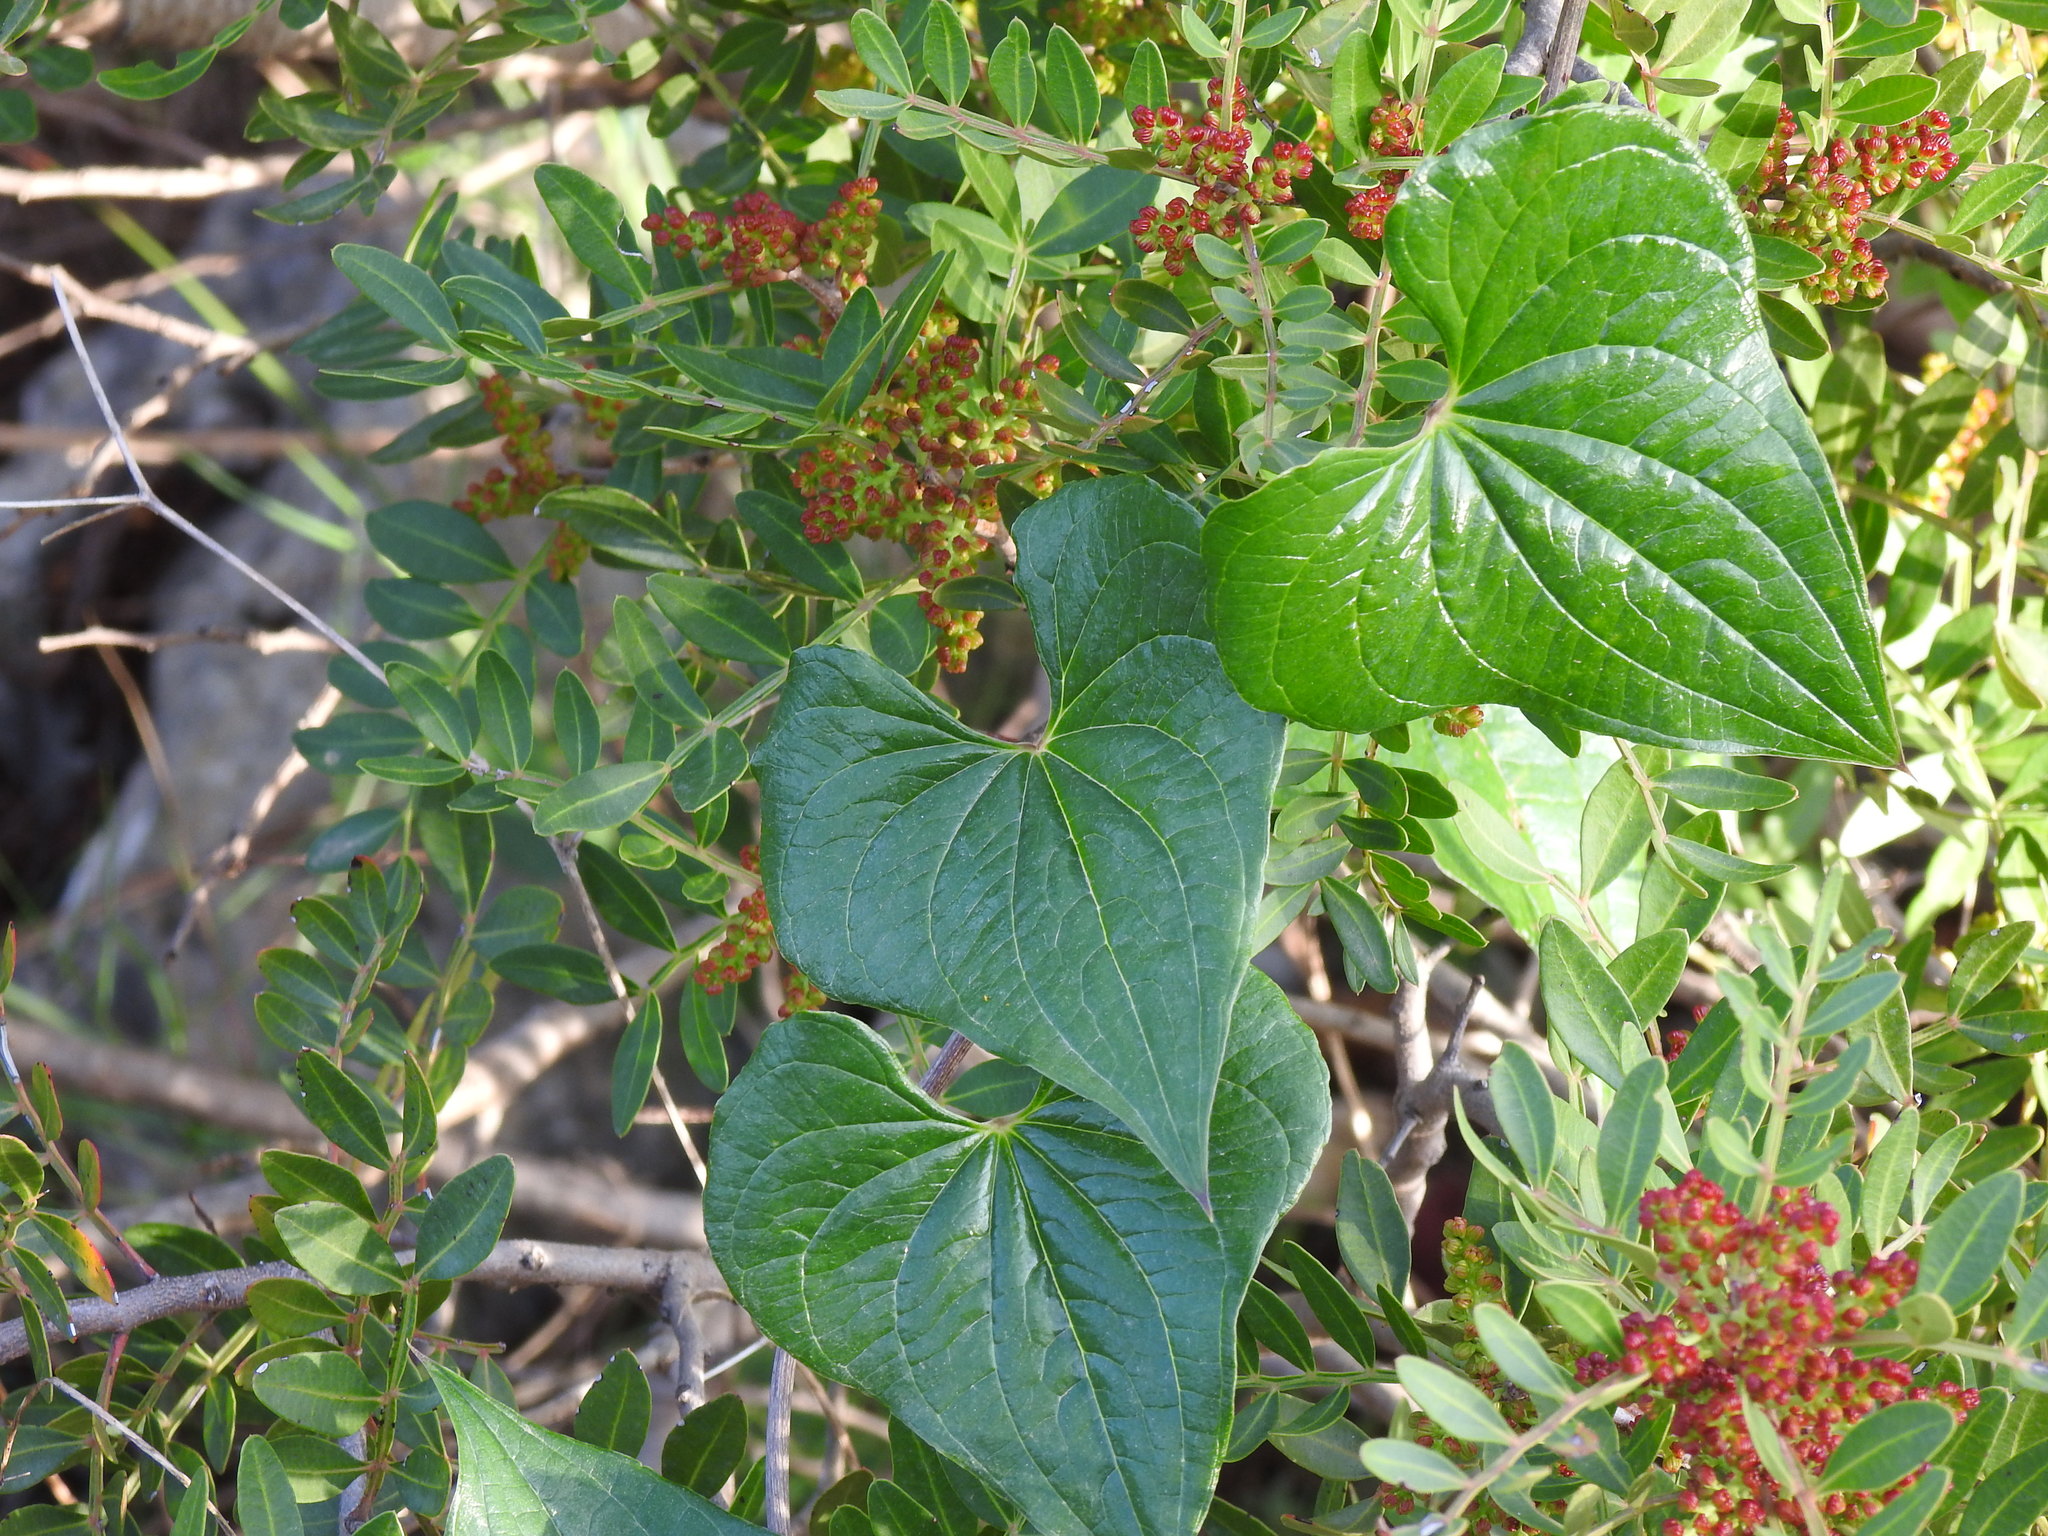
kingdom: Plantae
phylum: Tracheophyta
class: Liliopsida
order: Dioscoreales
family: Dioscoreaceae
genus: Dioscorea
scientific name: Dioscorea communis
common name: Black-bindweed
